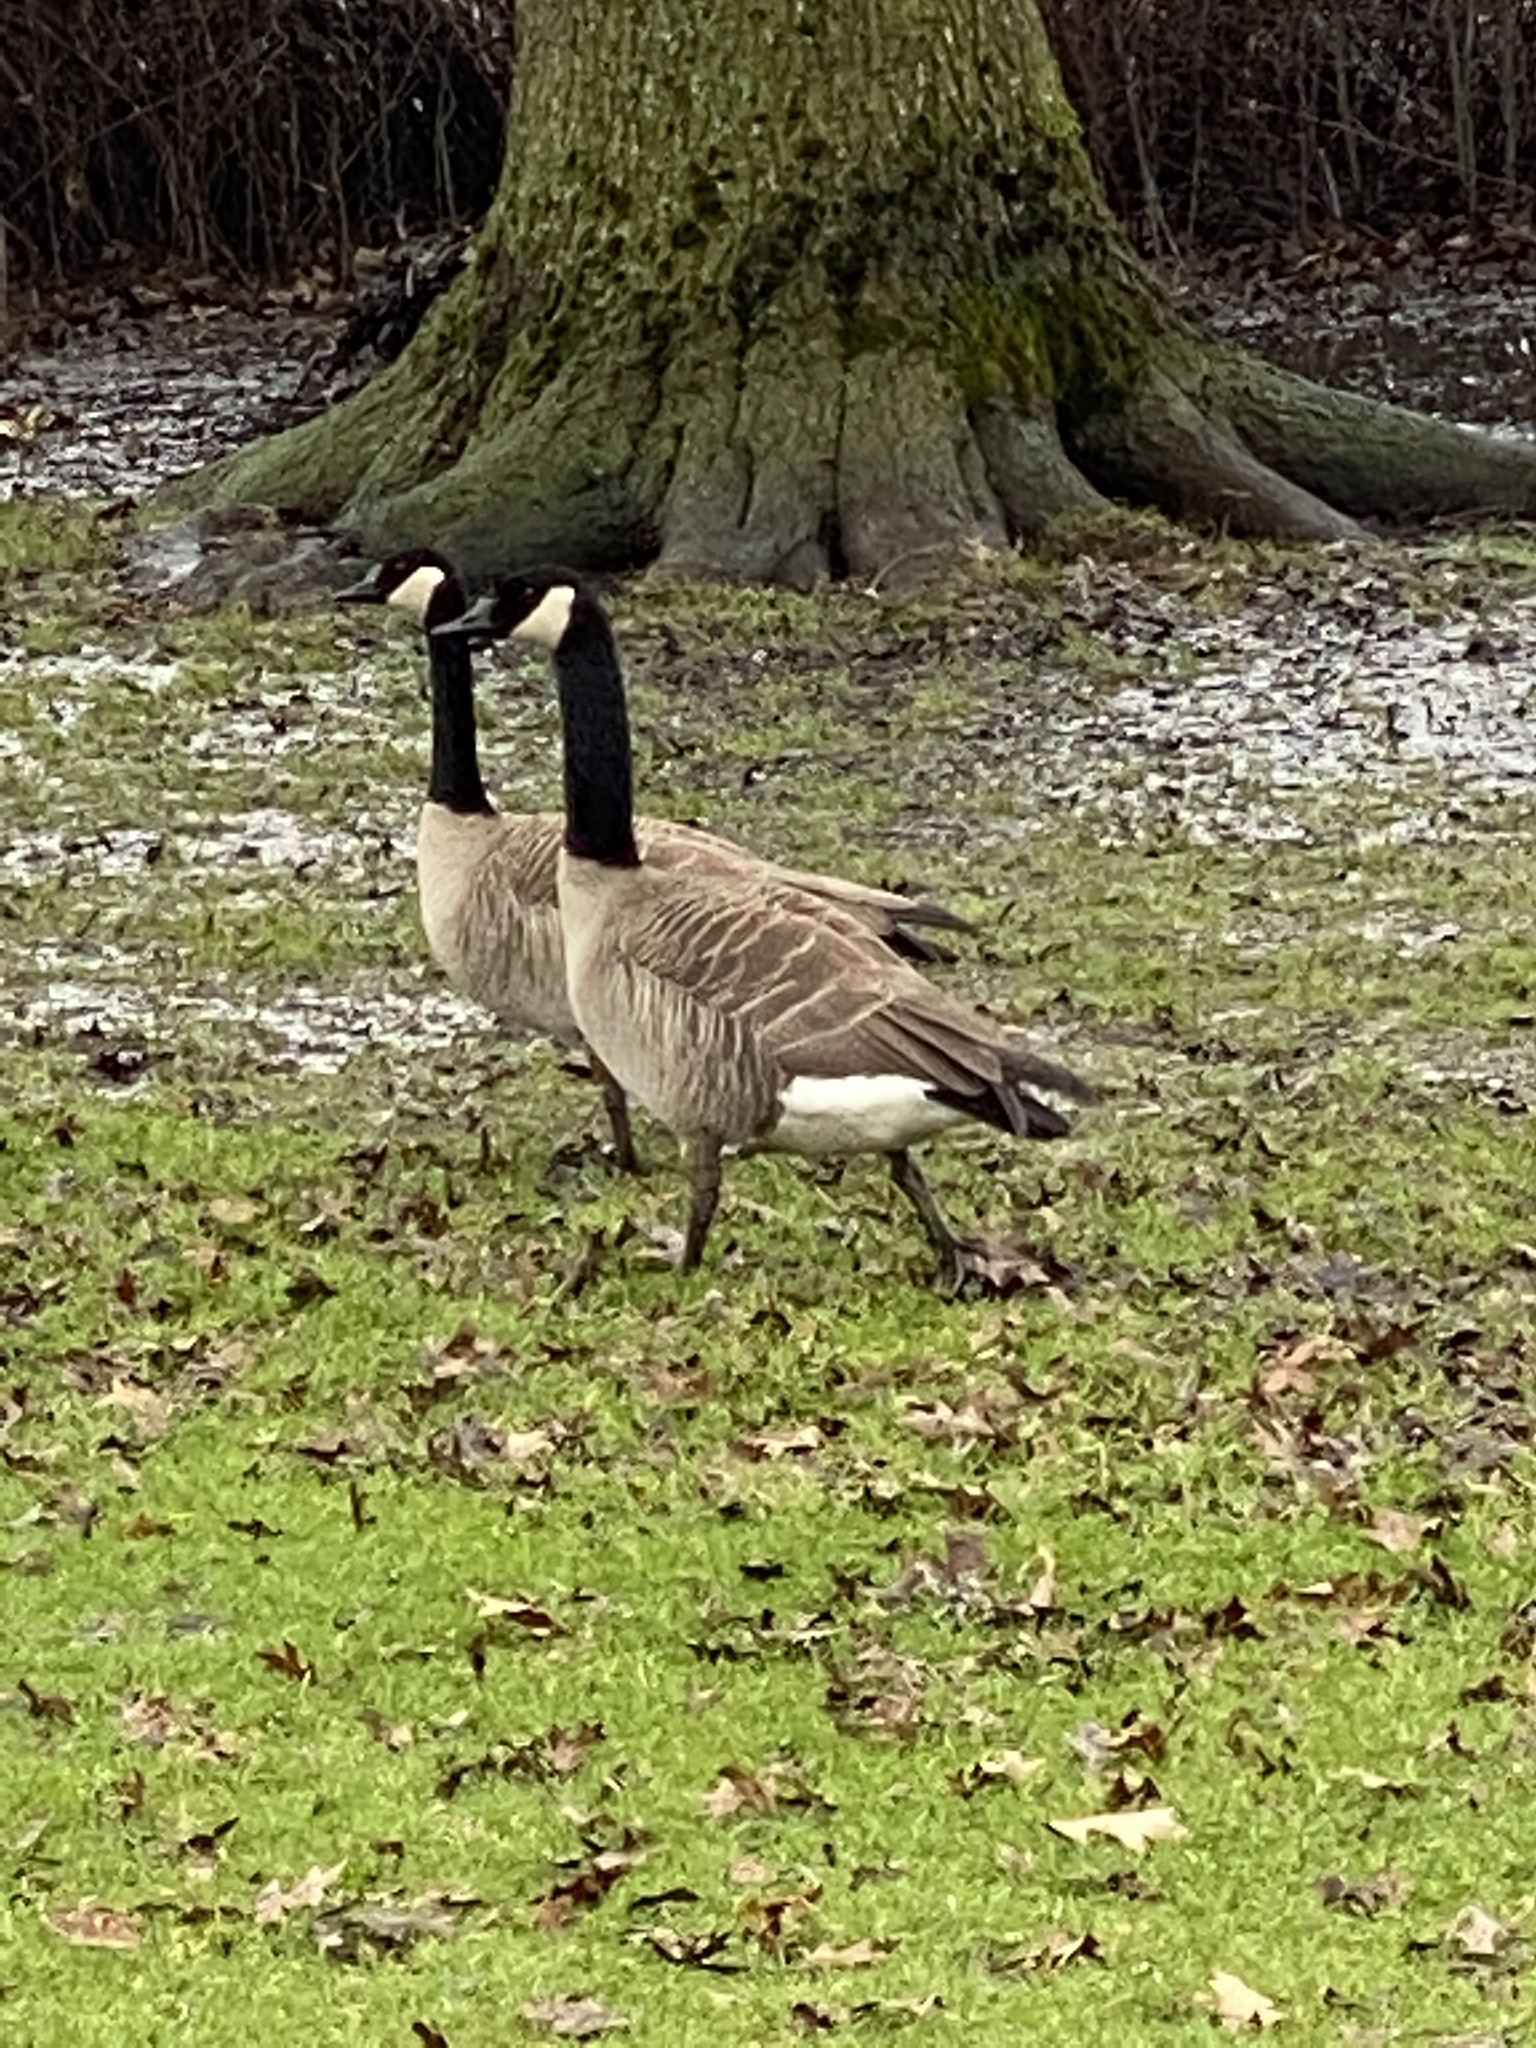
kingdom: Animalia
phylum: Chordata
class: Aves
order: Anseriformes
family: Anatidae
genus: Branta
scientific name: Branta canadensis
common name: Canada goose
